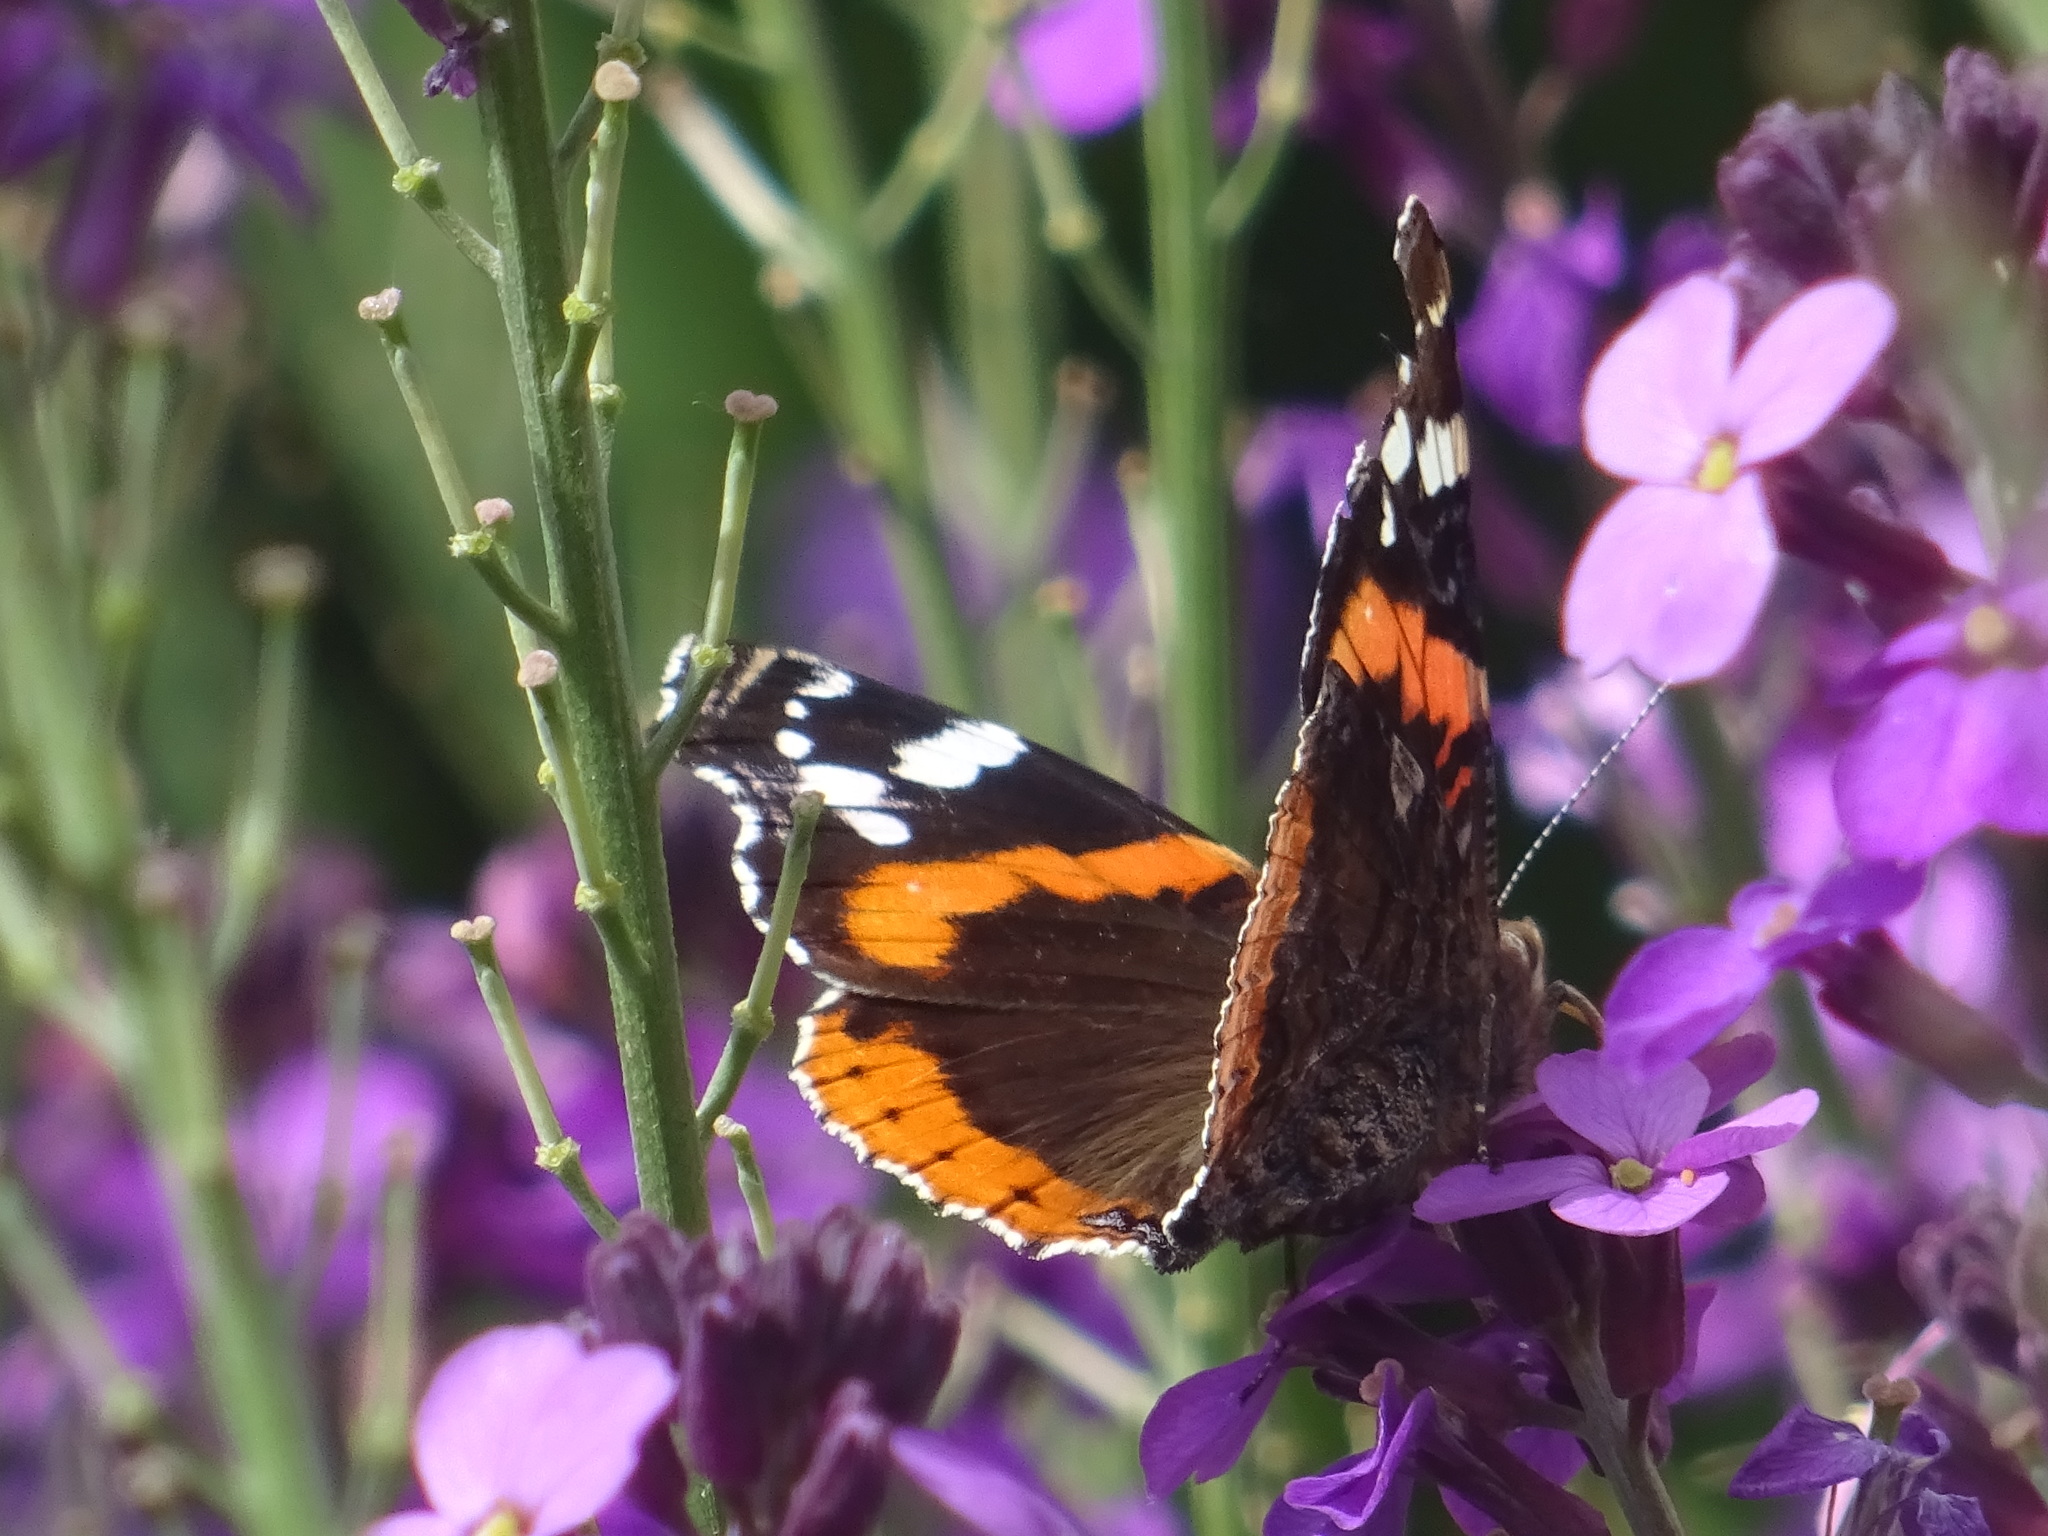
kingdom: Animalia
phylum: Arthropoda
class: Insecta
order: Lepidoptera
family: Nymphalidae
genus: Vanessa
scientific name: Vanessa atalanta
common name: Red admiral
